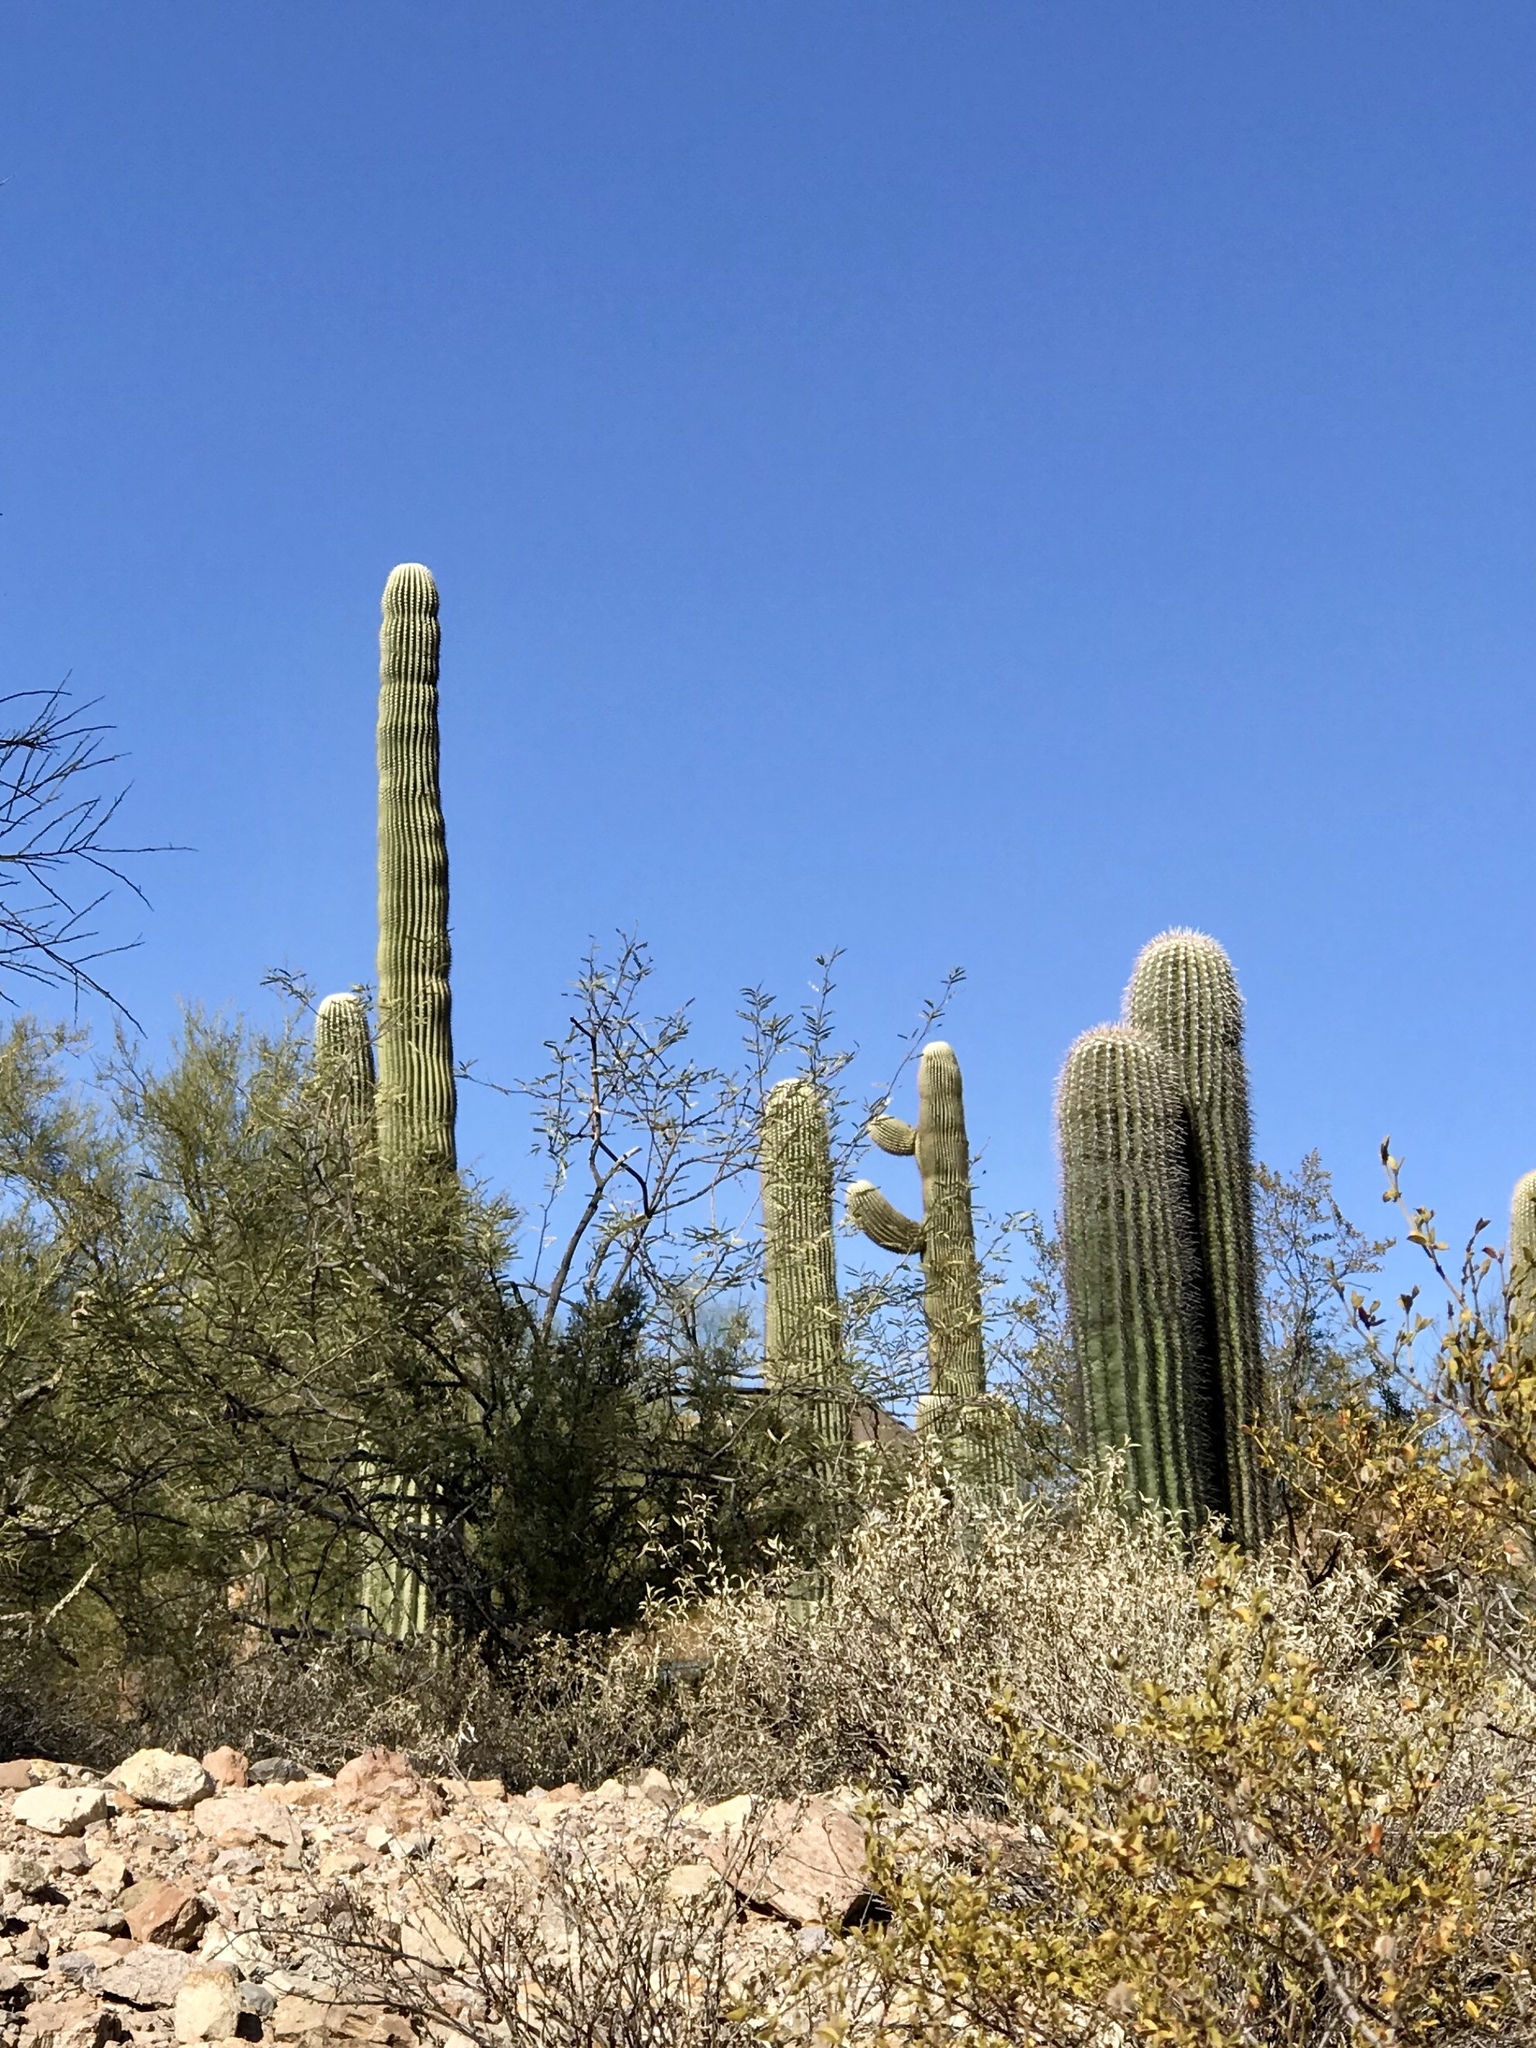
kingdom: Plantae
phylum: Tracheophyta
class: Magnoliopsida
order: Caryophyllales
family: Cactaceae
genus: Carnegiea
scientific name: Carnegiea gigantea
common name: Saguaro
